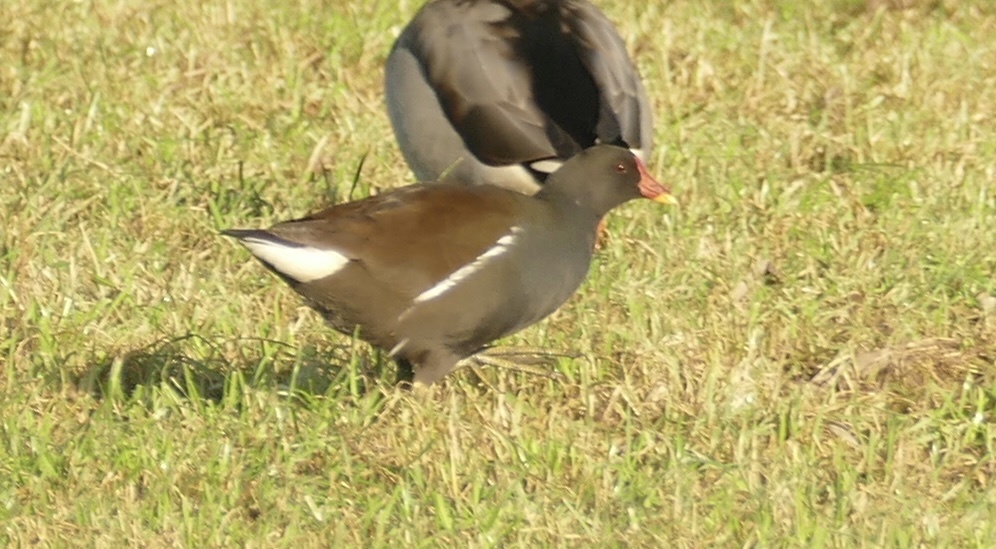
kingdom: Animalia
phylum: Chordata
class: Aves
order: Gruiformes
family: Rallidae
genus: Gallinula
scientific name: Gallinula chloropus
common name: Common moorhen
